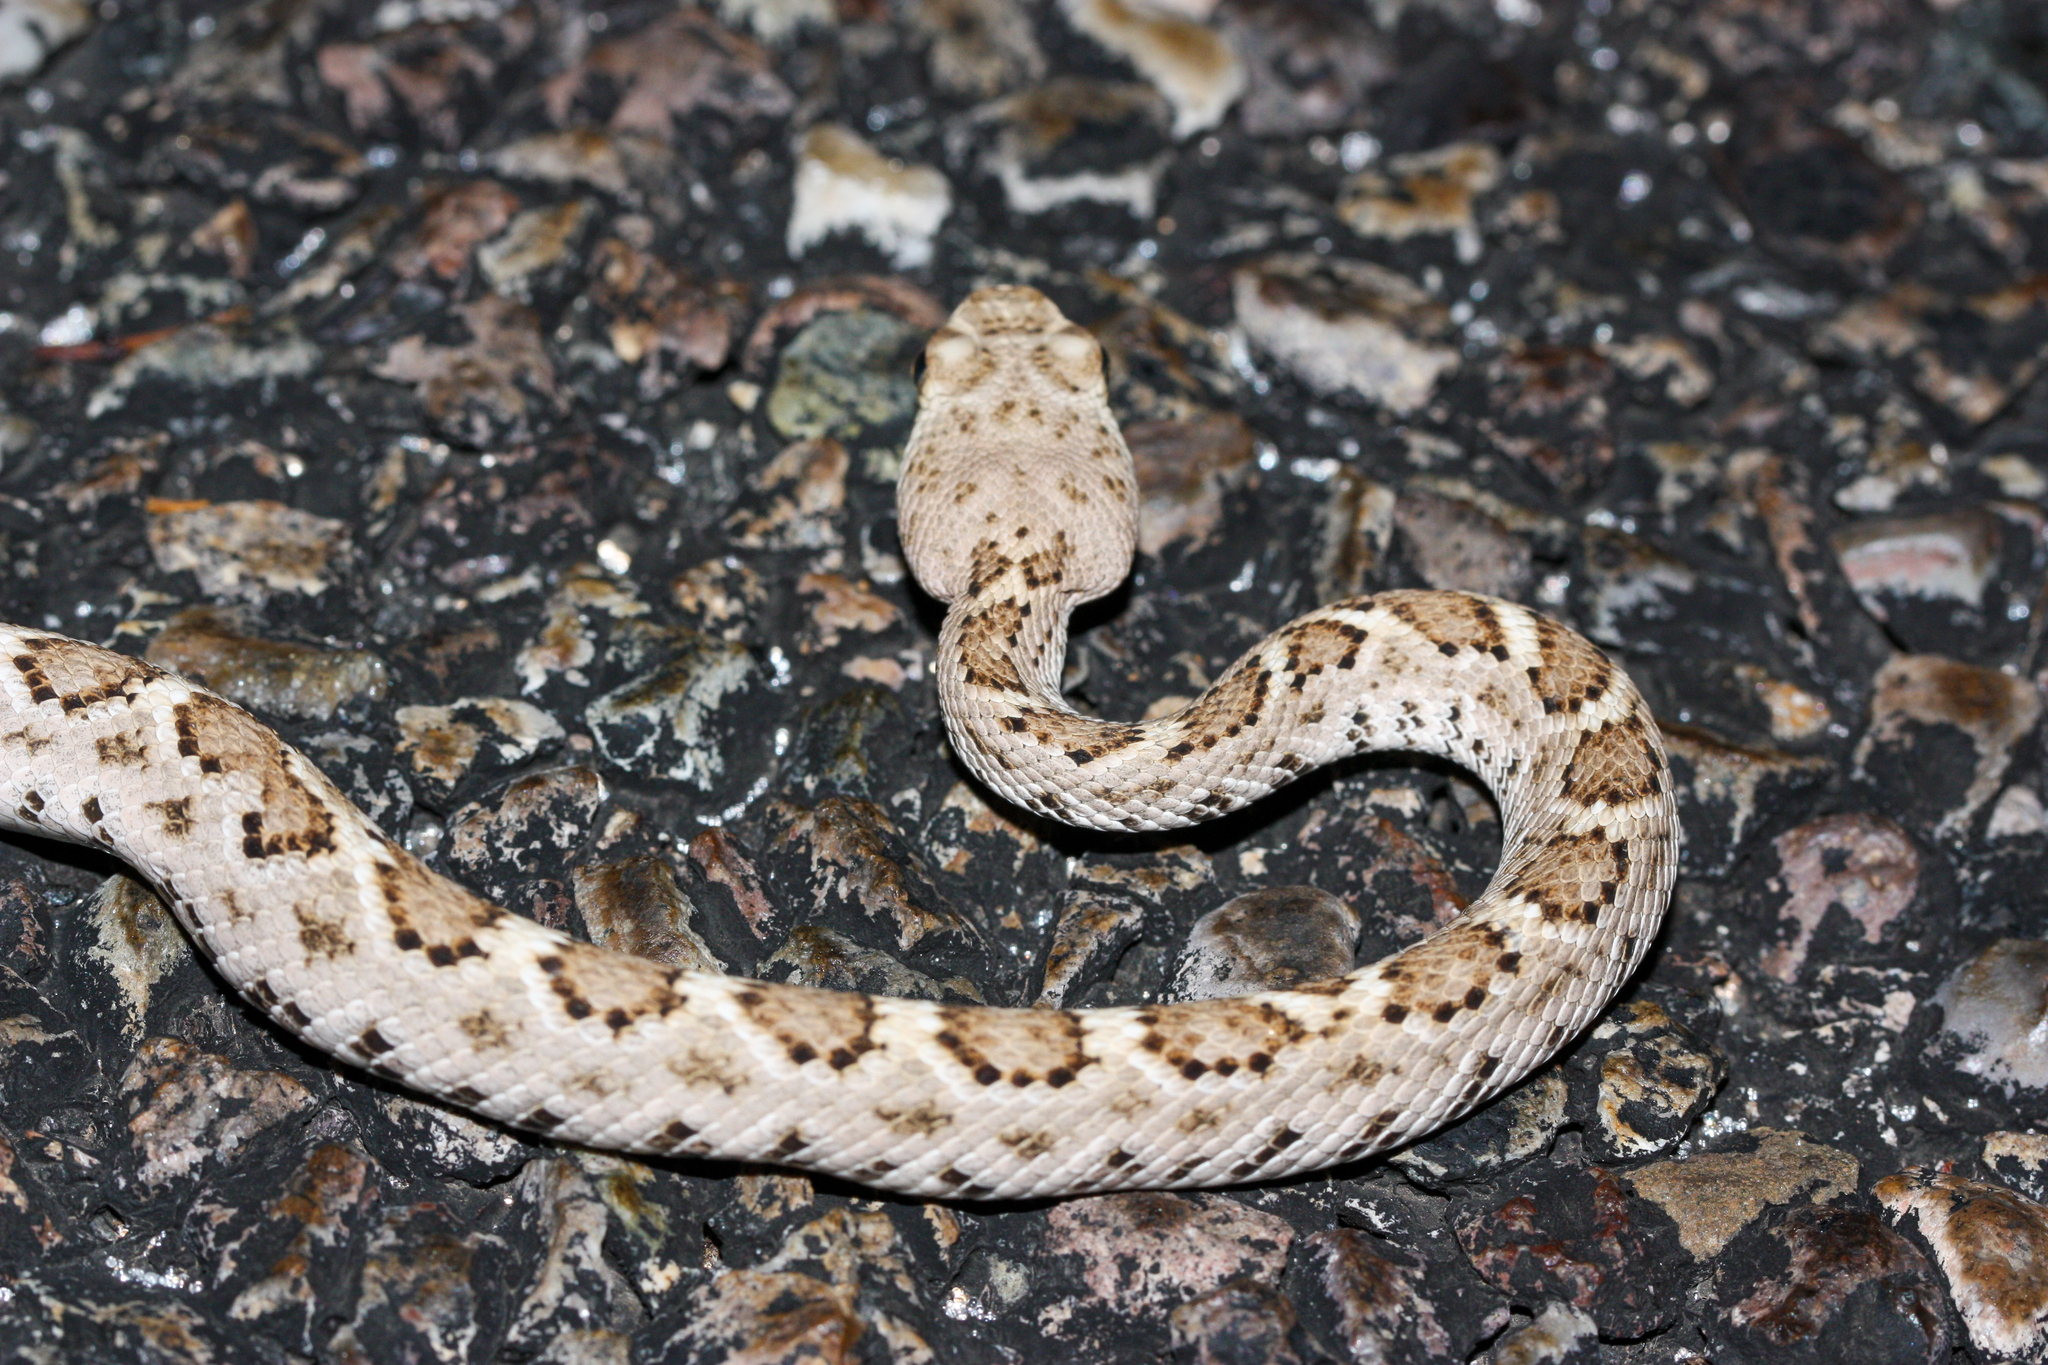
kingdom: Animalia
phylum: Chordata
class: Squamata
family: Viperidae
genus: Crotalus
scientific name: Crotalus atrox
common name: Western diamond-backed rattlesnake
